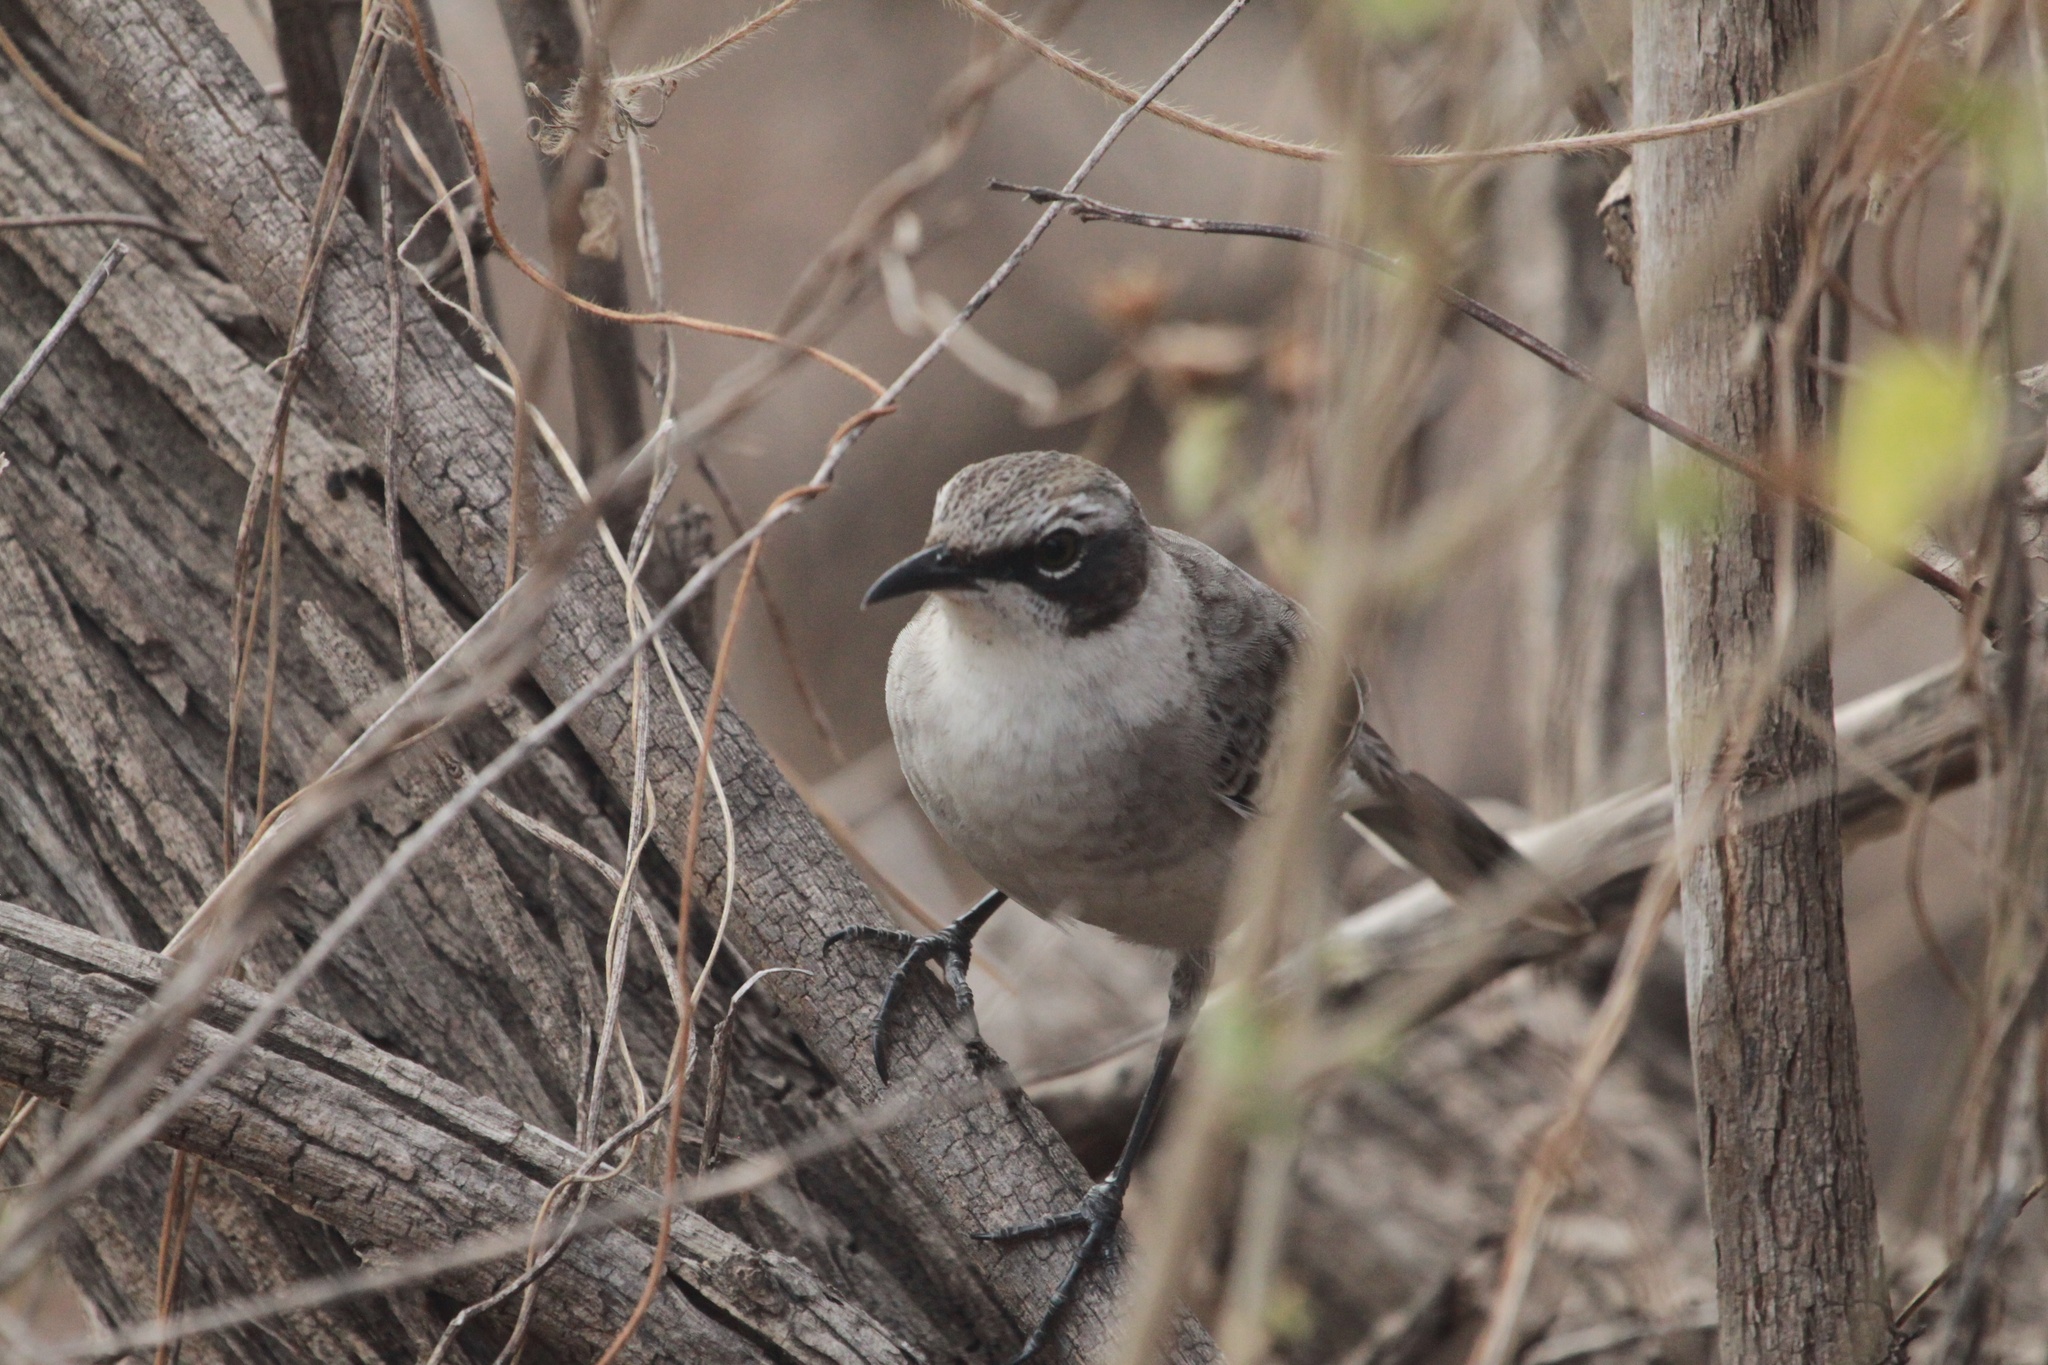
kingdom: Animalia
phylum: Chordata
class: Aves
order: Passeriformes
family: Mimidae
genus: Mimus
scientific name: Mimus parvulus
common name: Galapagos mockingbird
